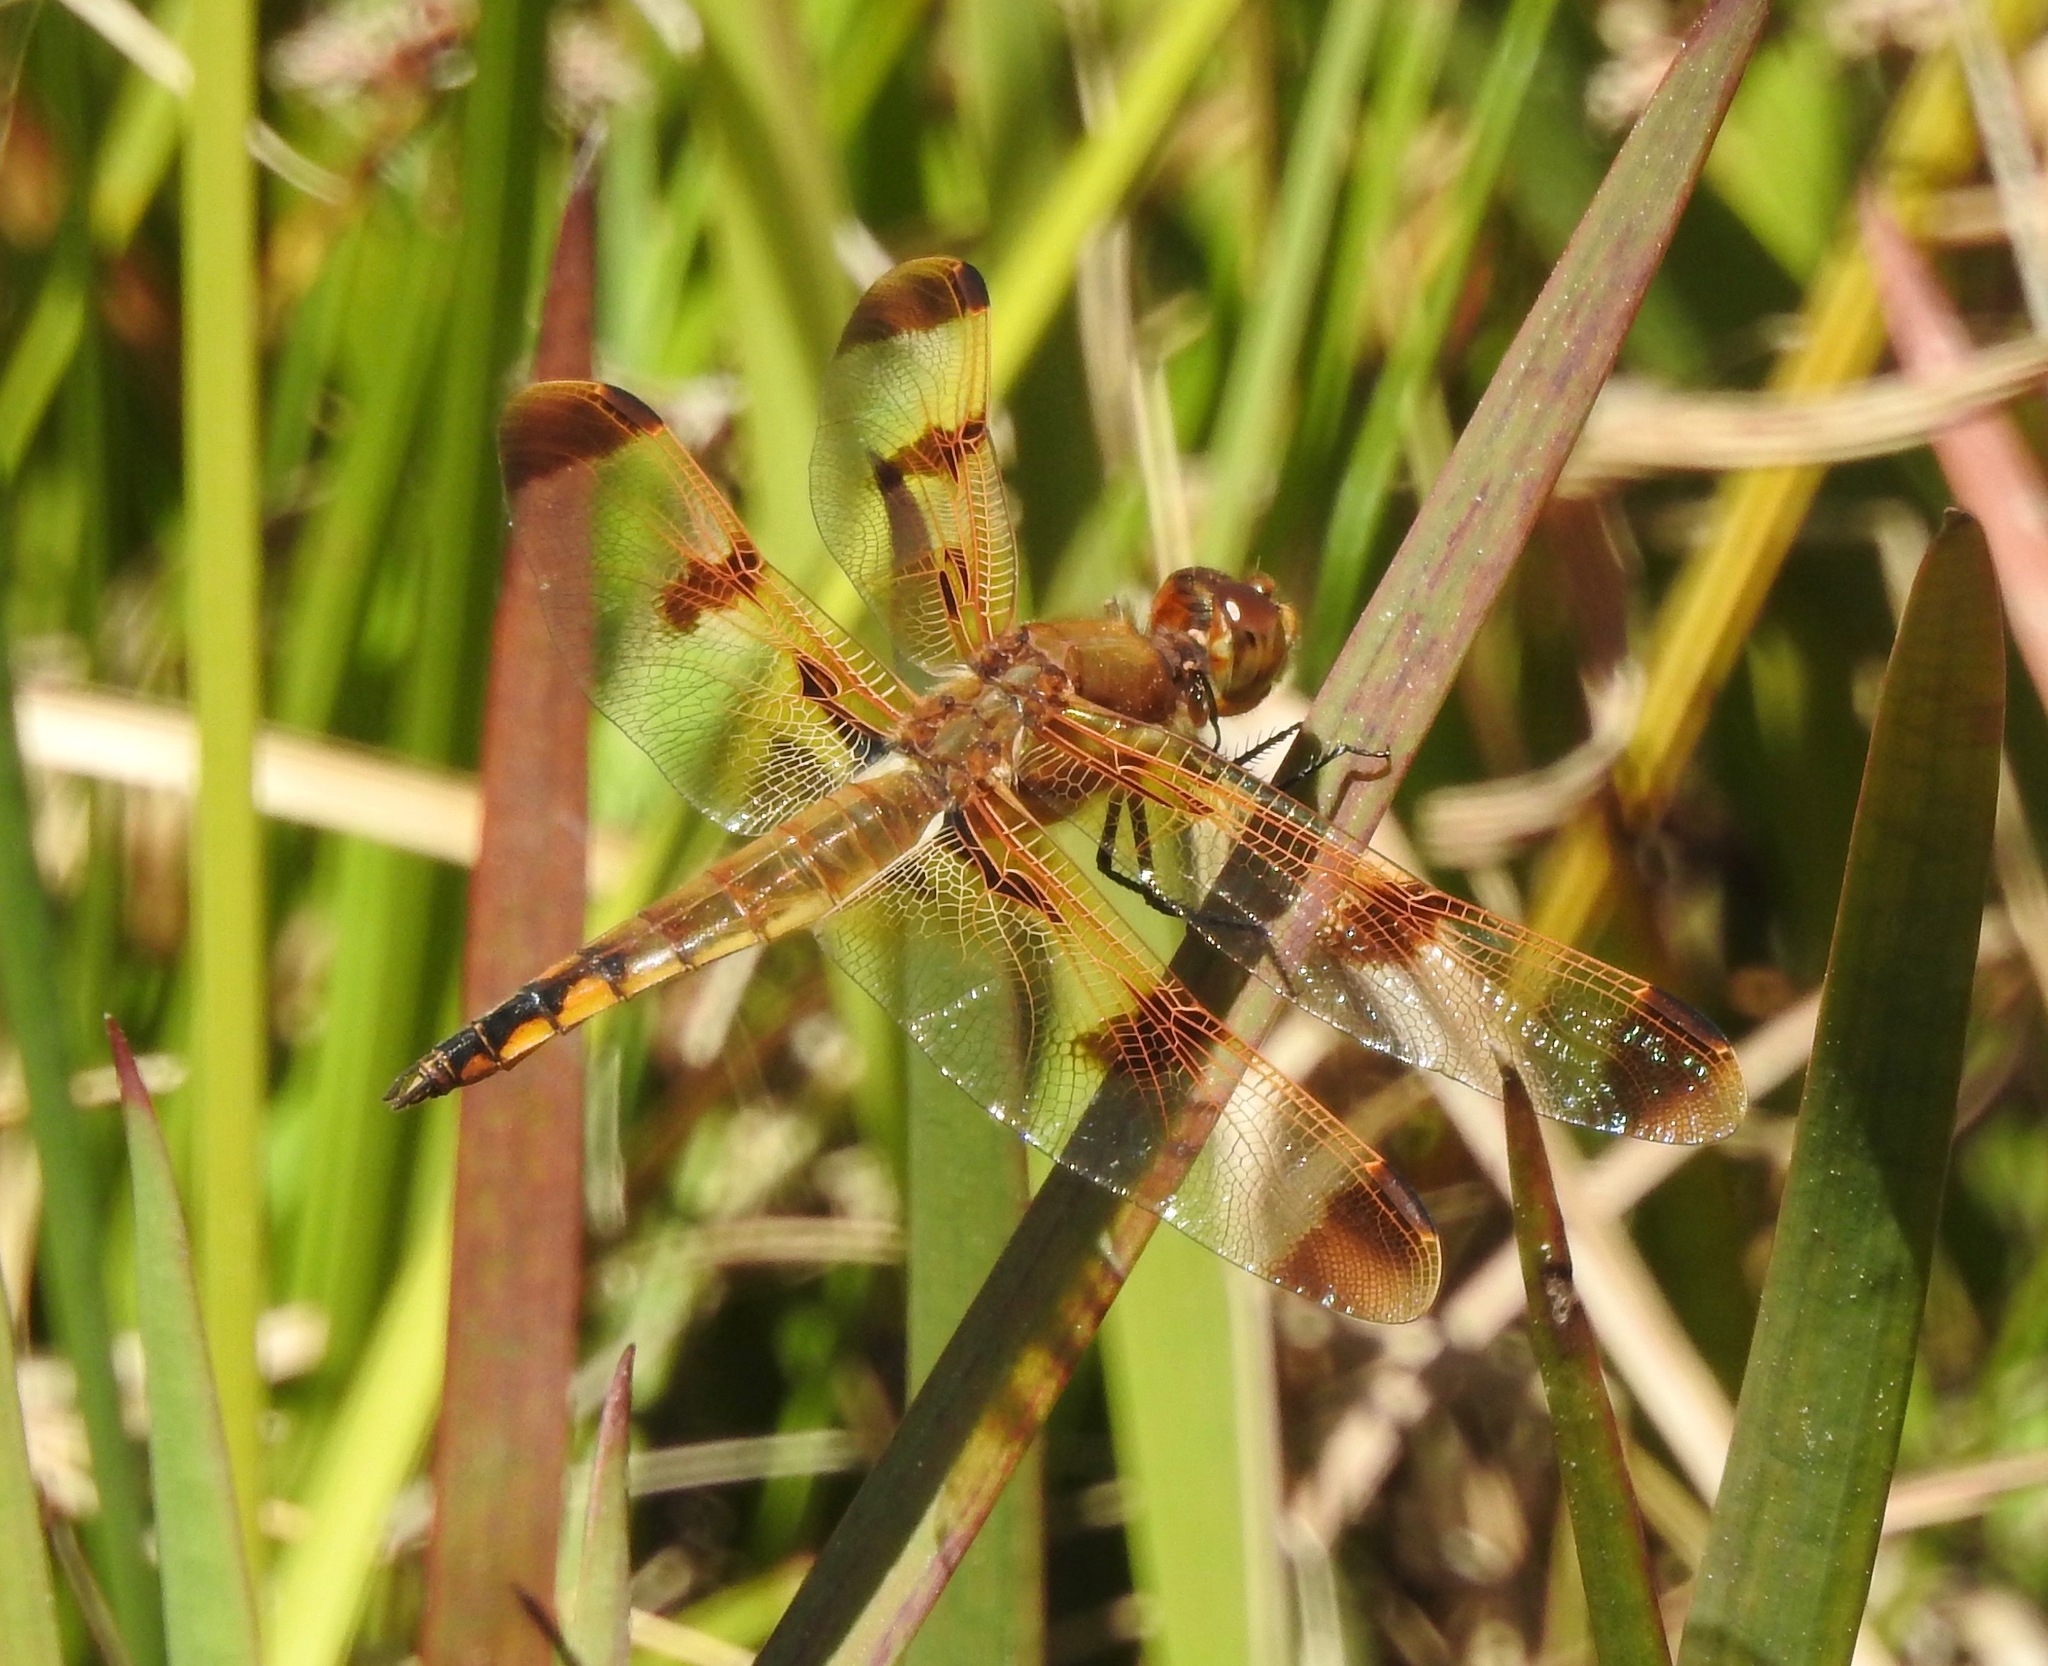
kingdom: Animalia
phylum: Arthropoda
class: Insecta
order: Odonata
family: Libellulidae
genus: Libellula
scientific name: Libellula semifasciata
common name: Painted skimmer
